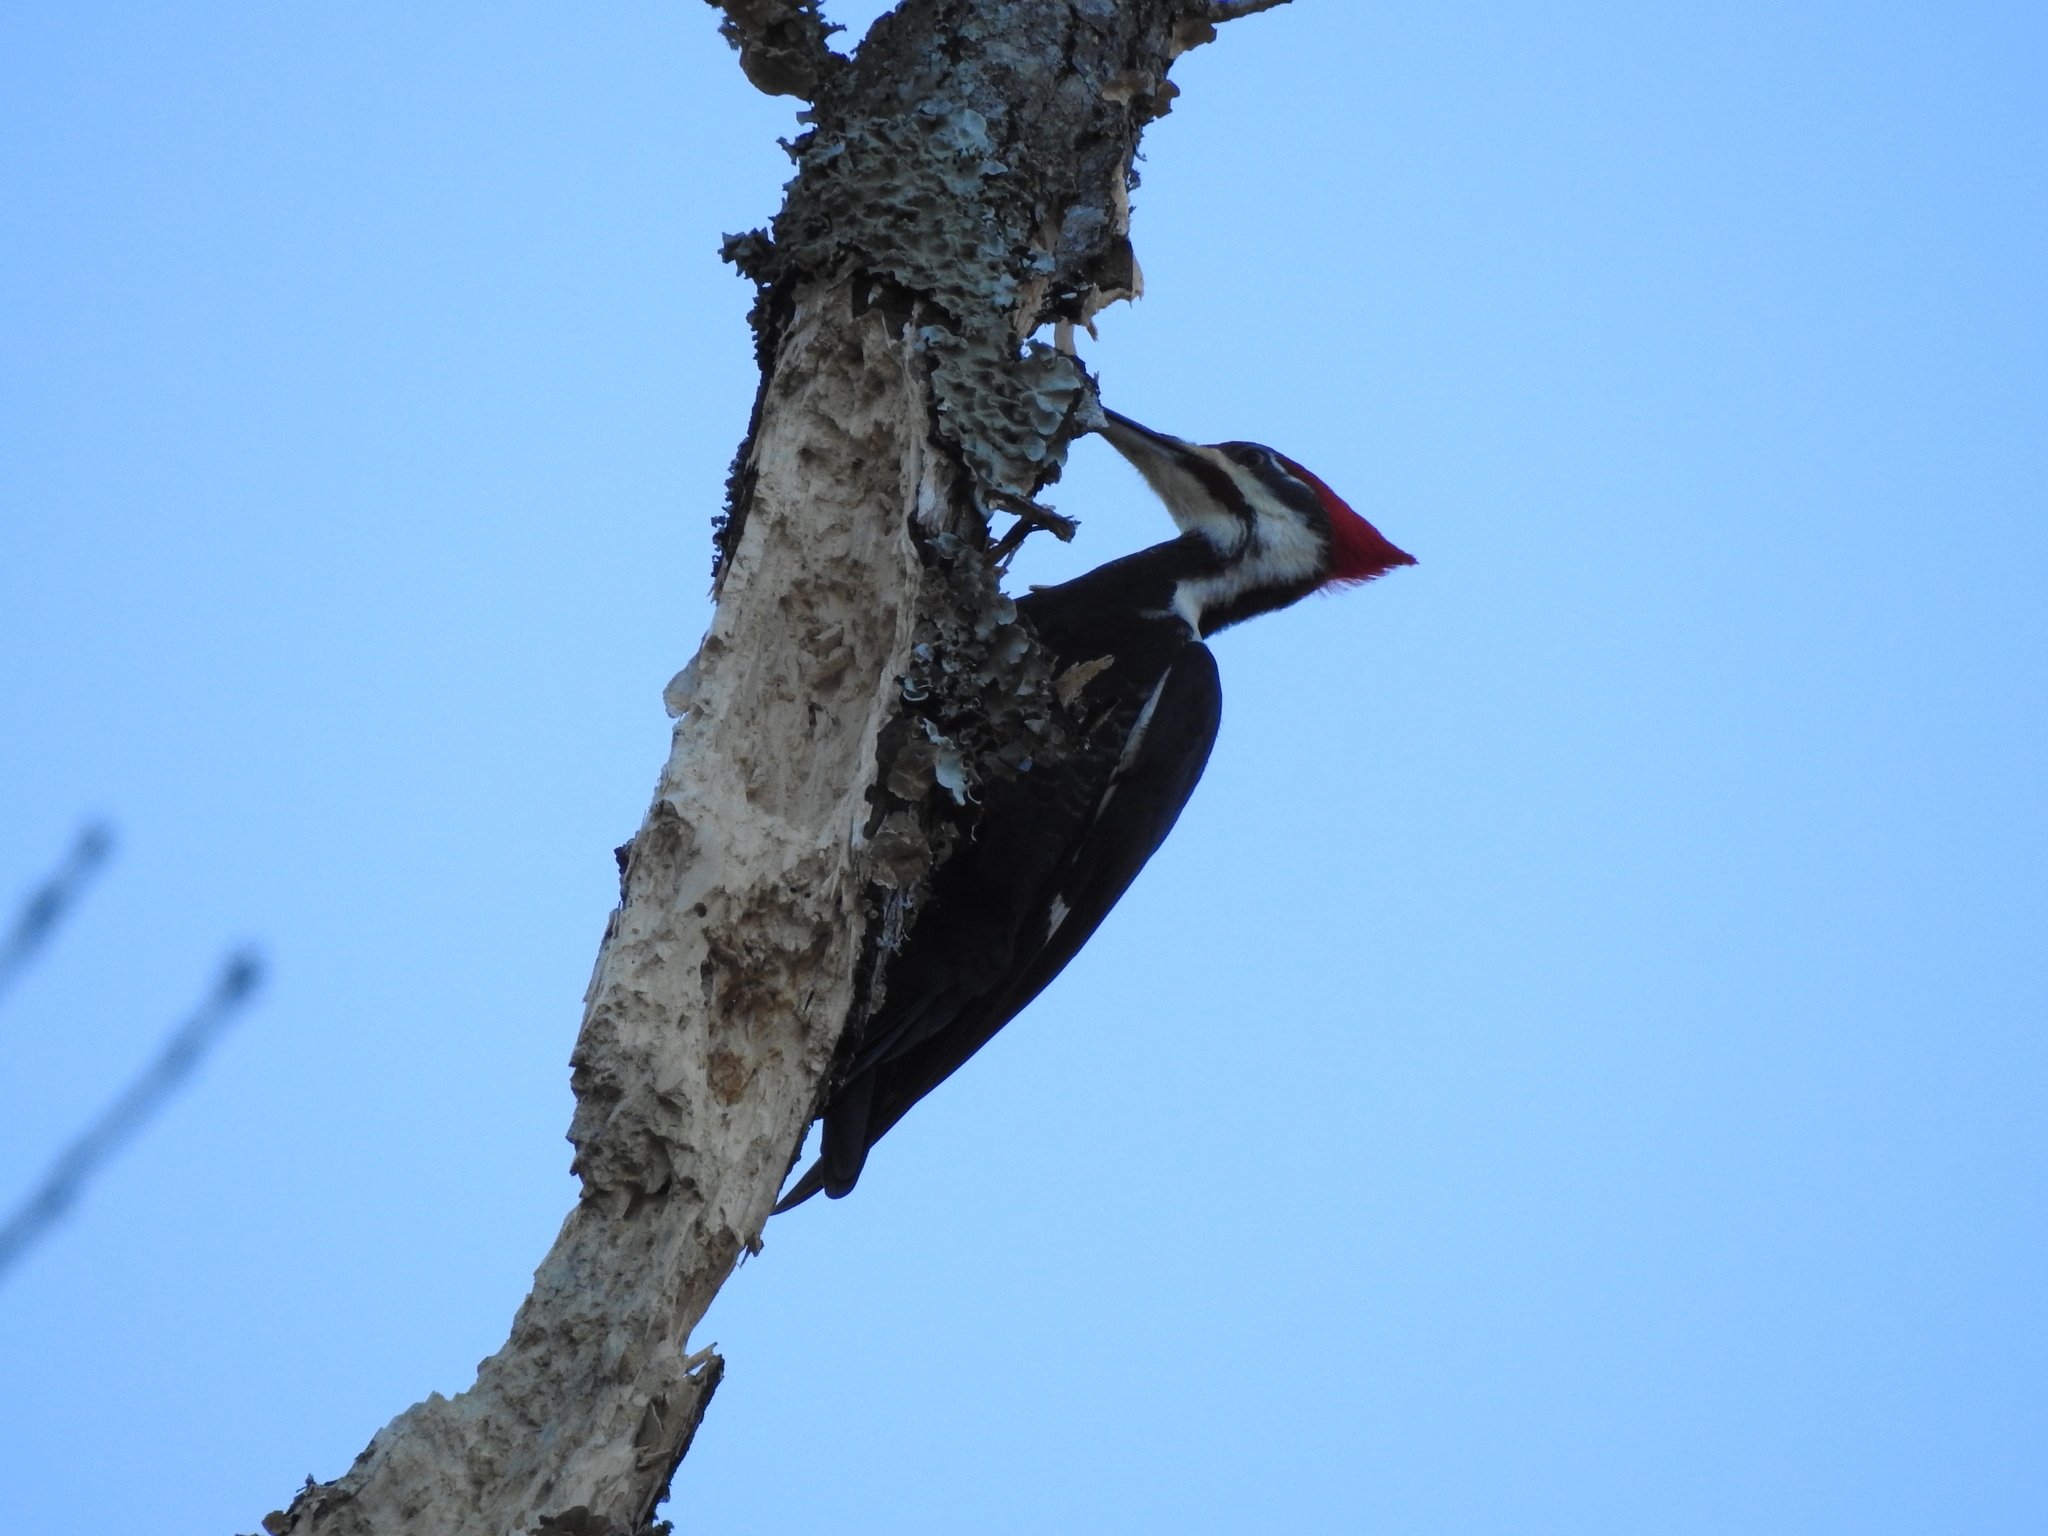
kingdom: Animalia
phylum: Chordata
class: Aves
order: Piciformes
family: Picidae
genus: Dryocopus
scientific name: Dryocopus pileatus
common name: Pileated woodpecker
